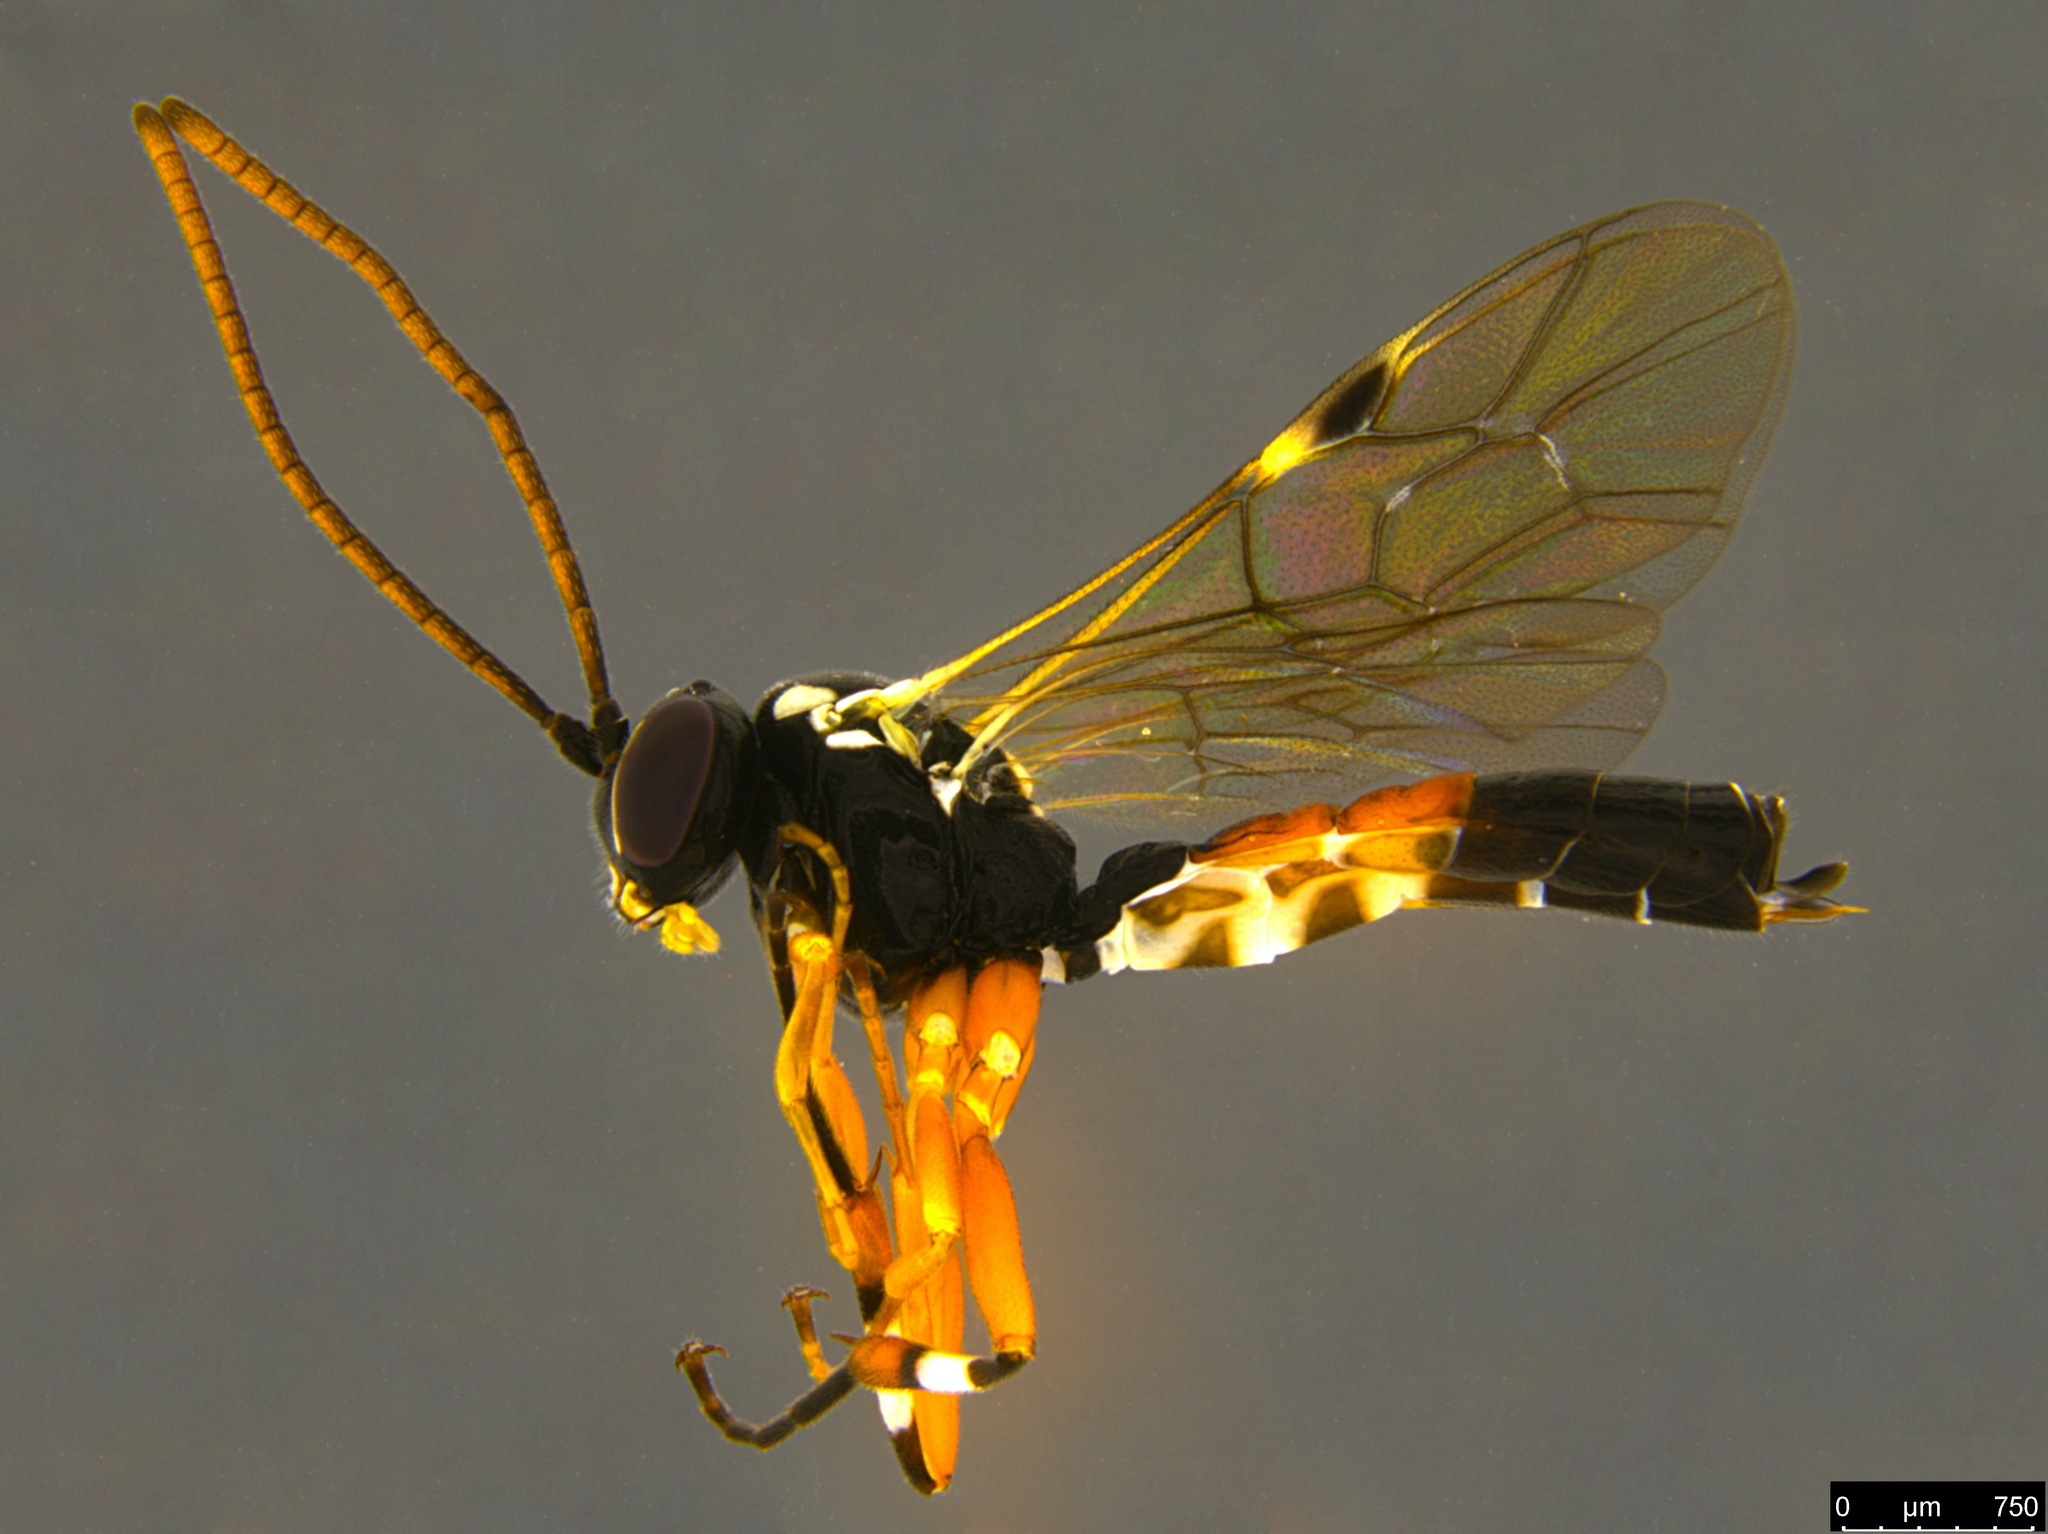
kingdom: Animalia
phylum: Arthropoda
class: Insecta
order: Hymenoptera
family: Ichneumonidae
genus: Diplazon
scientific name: Diplazon laetatorius
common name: Parasitoid wasp
